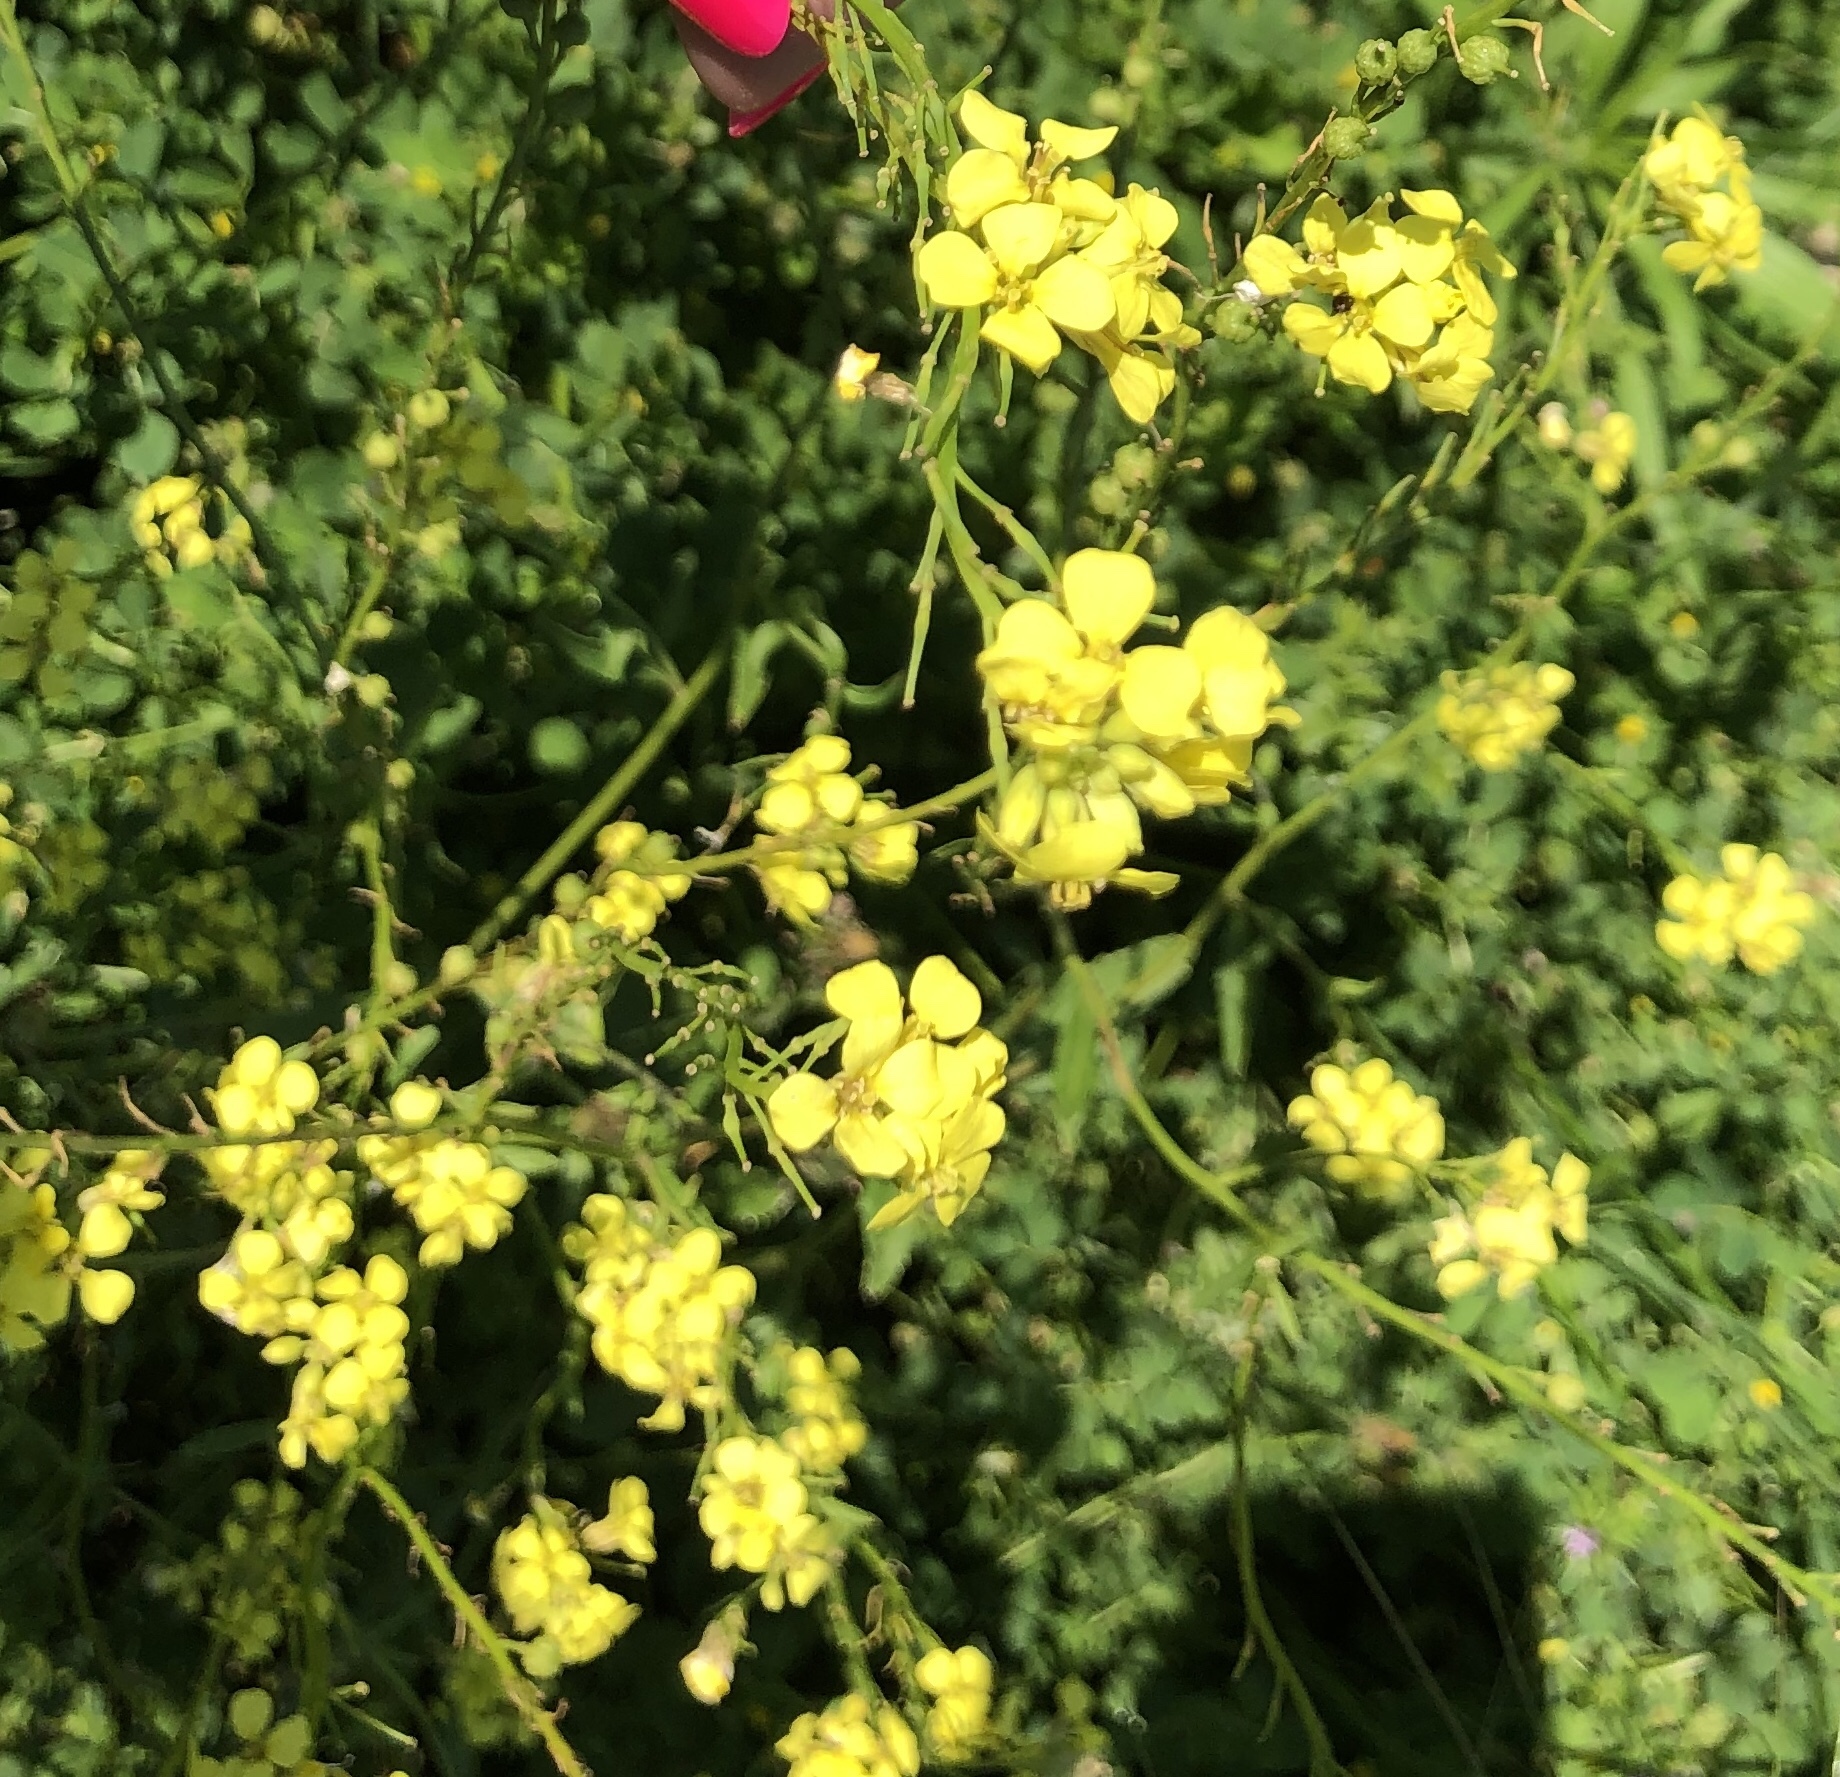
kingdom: Plantae
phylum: Tracheophyta
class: Magnoliopsida
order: Brassicales
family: Brassicaceae
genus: Rapistrum
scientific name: Rapistrum rugosum
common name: Annual bastardcabbage
